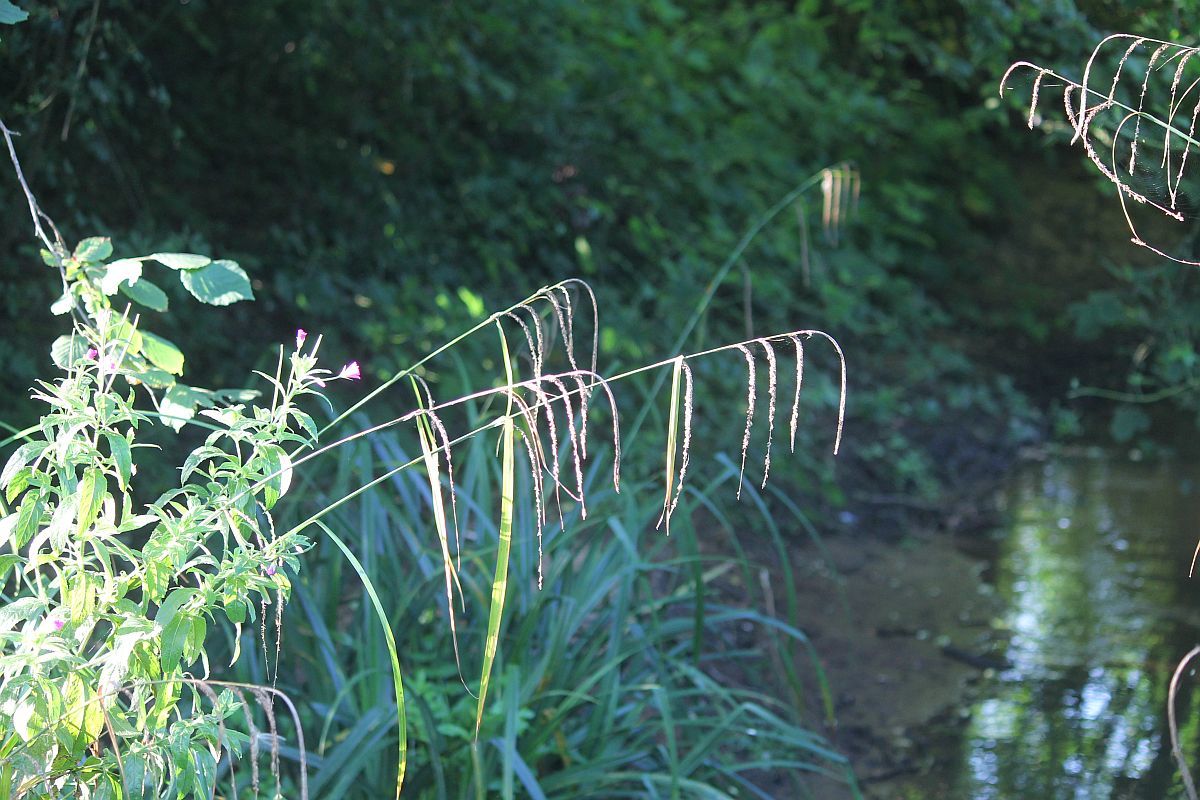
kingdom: Plantae
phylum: Tracheophyta
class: Liliopsida
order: Poales
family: Cyperaceae
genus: Carex
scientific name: Carex pendula
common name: Pendulous sedge
